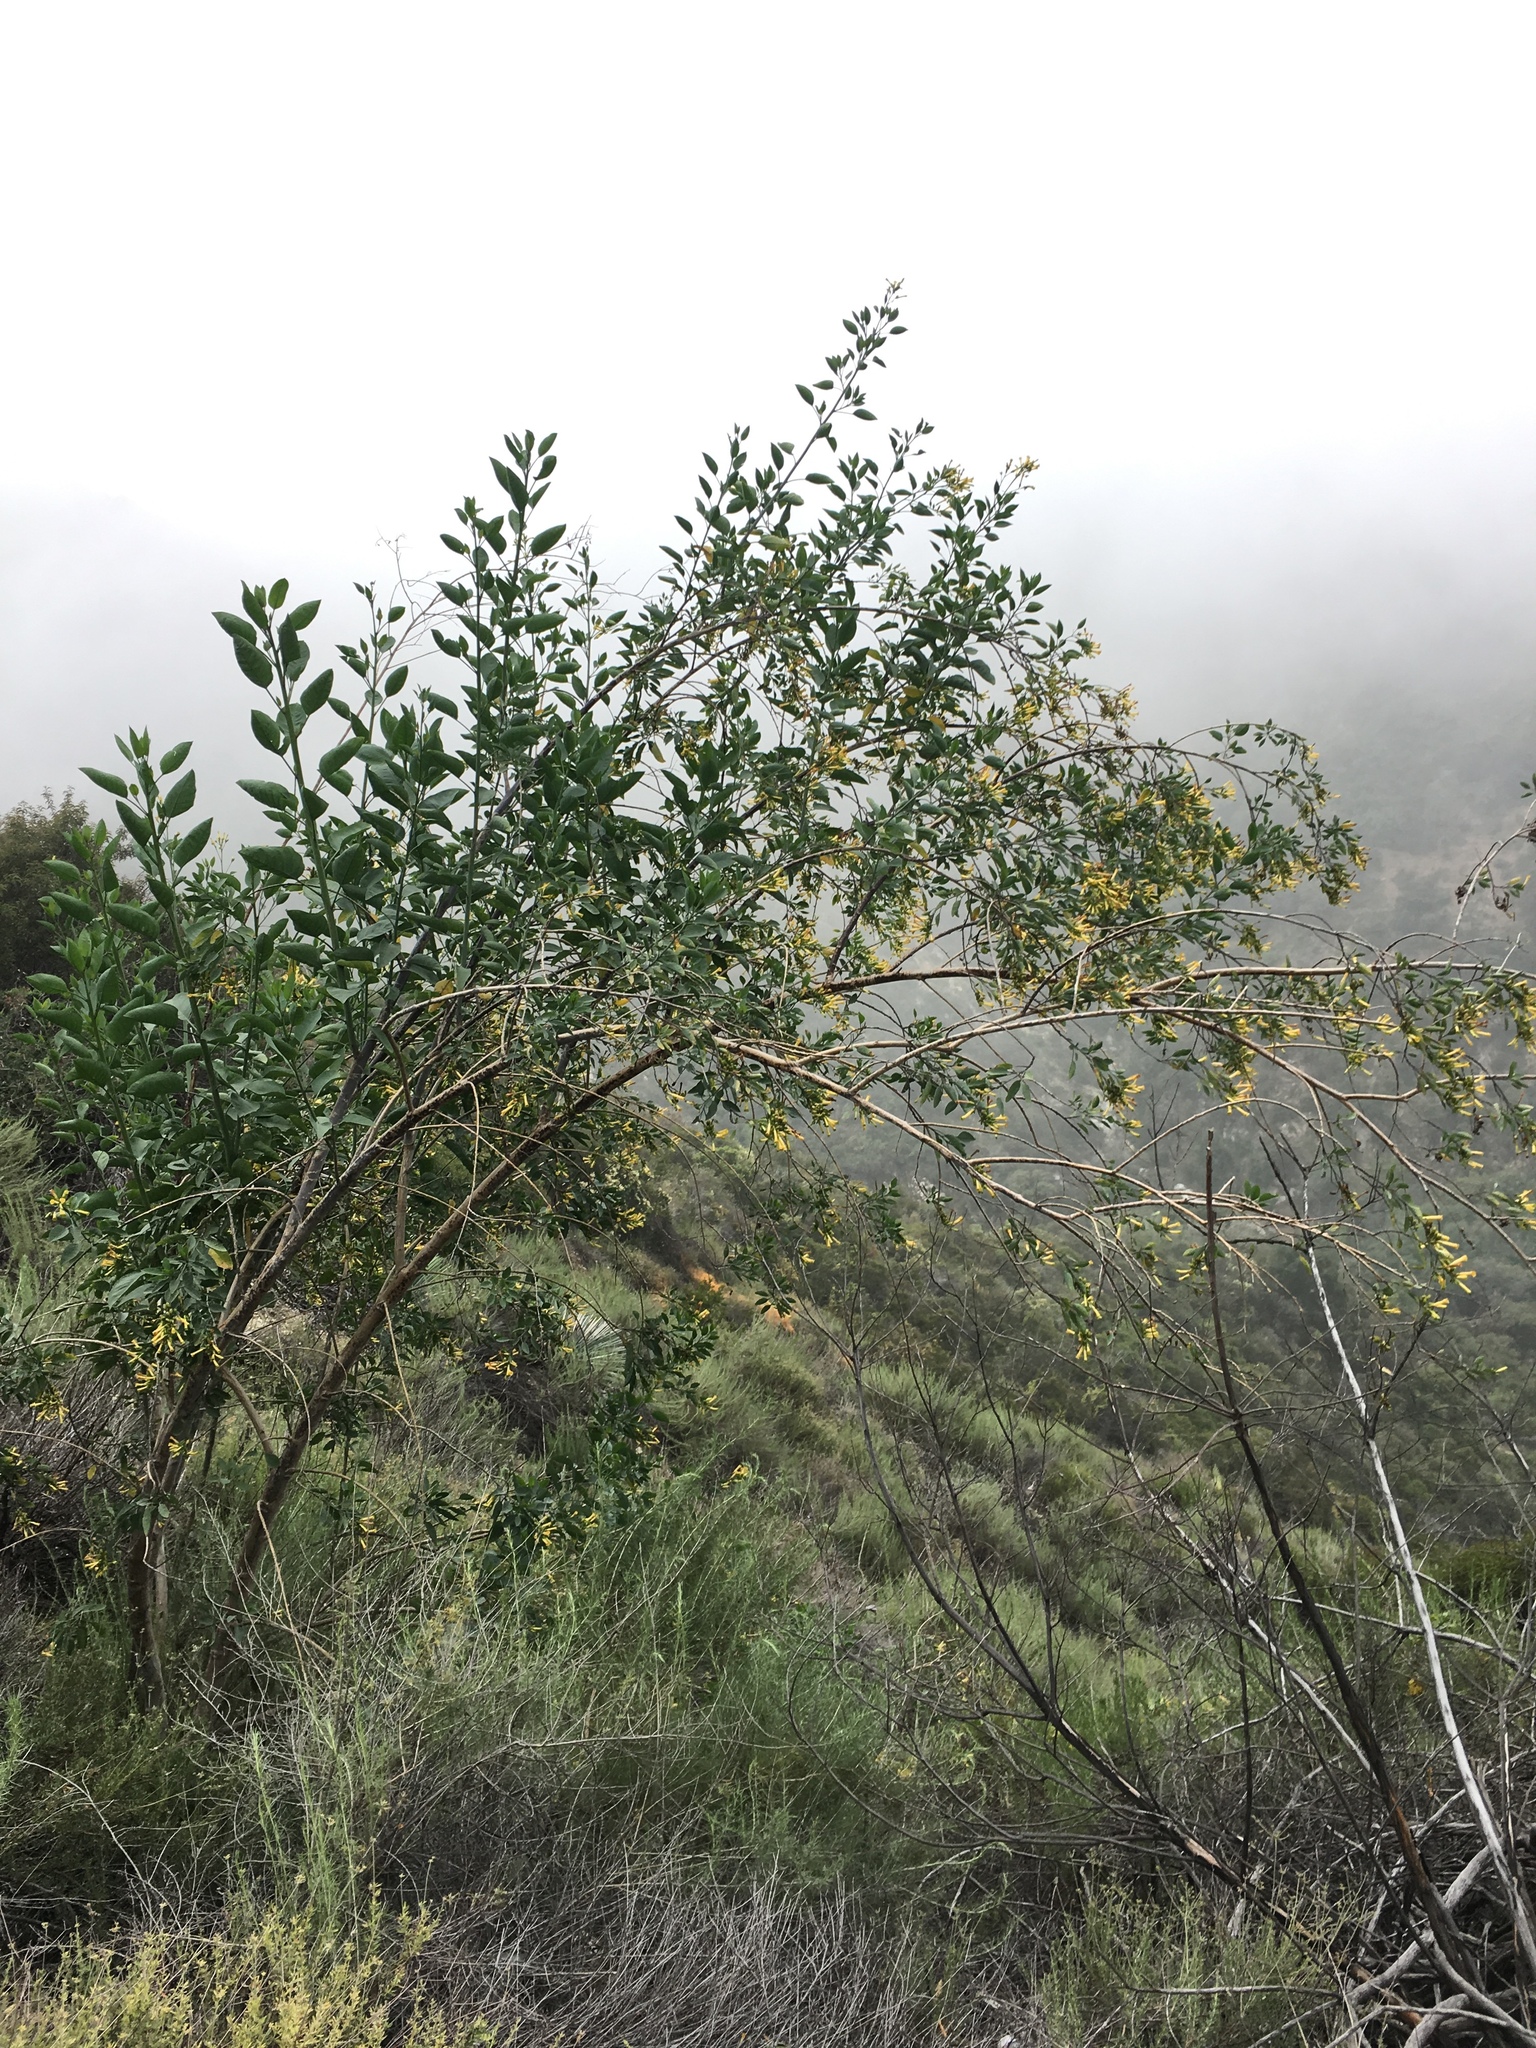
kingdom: Plantae
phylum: Tracheophyta
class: Magnoliopsida
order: Solanales
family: Solanaceae
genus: Nicotiana
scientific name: Nicotiana glauca
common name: Tree tobacco
